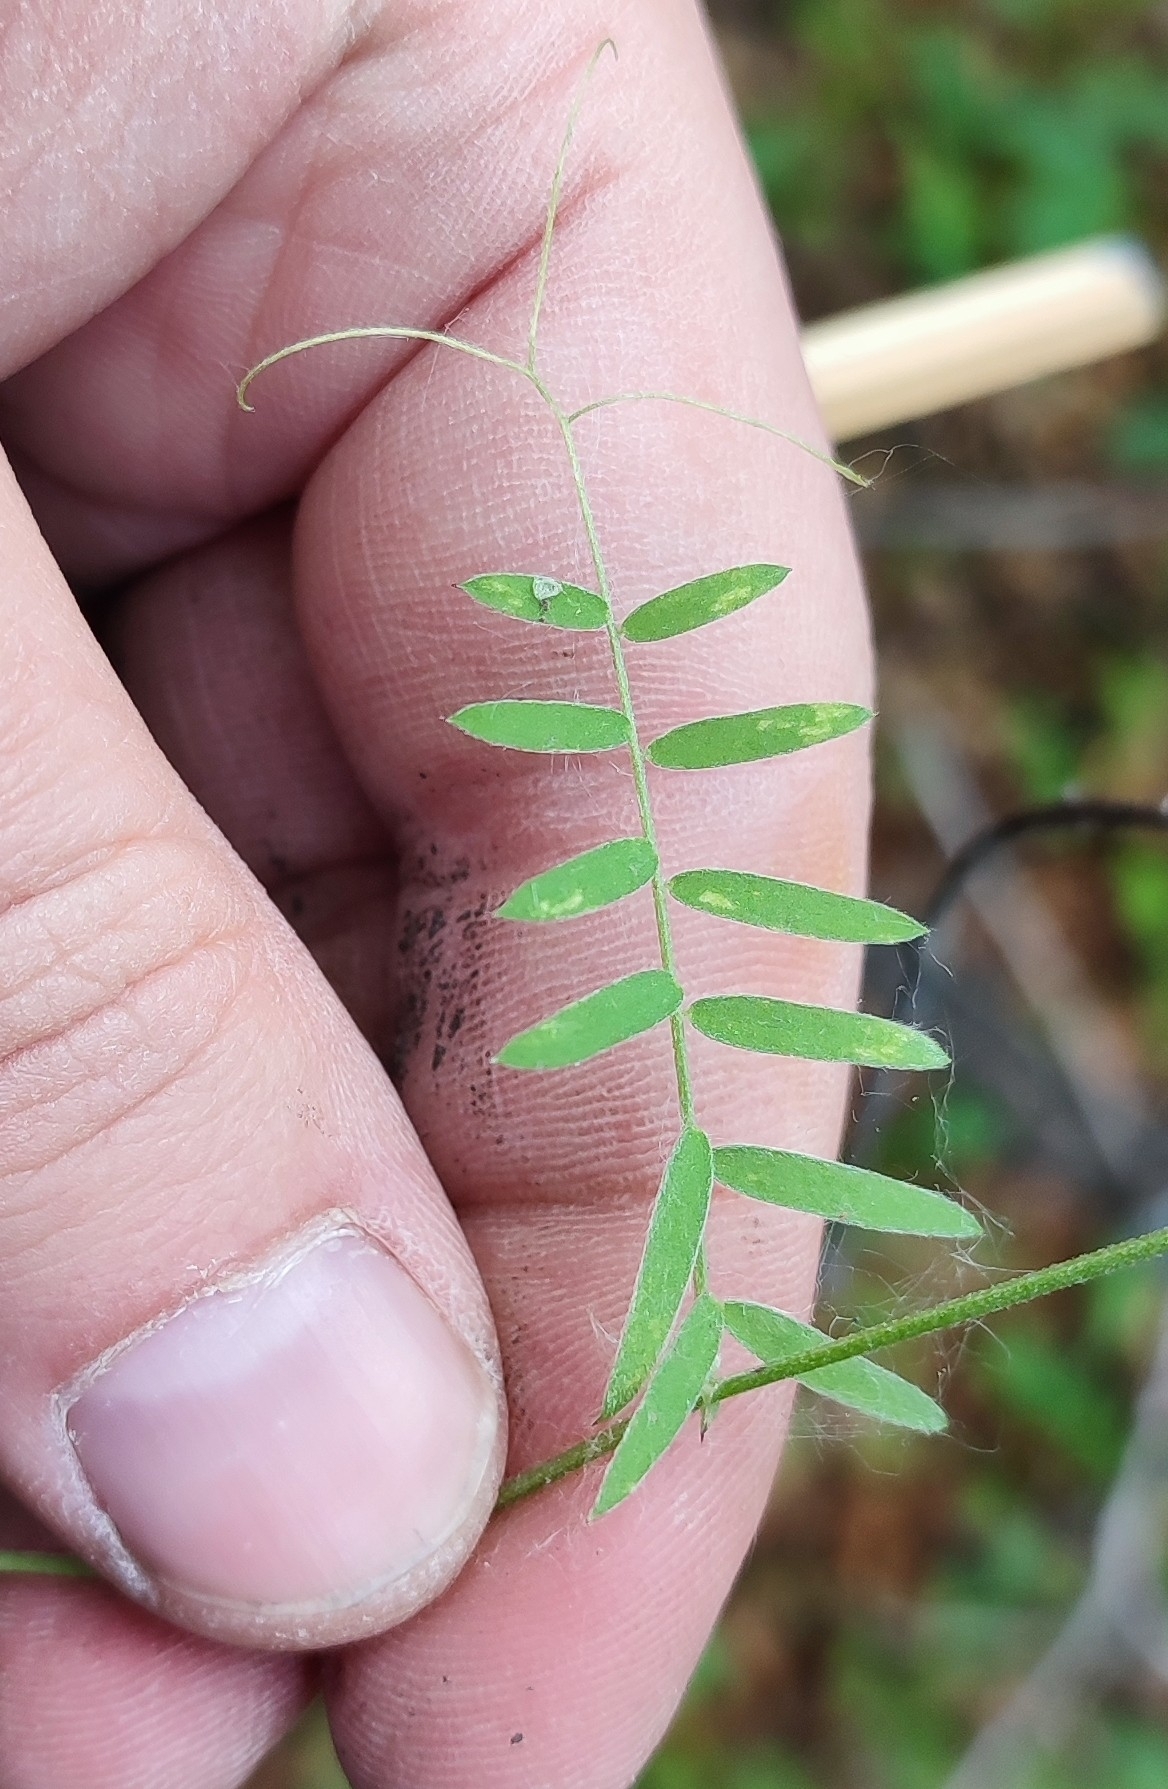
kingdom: Plantae
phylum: Tracheophyta
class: Magnoliopsida
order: Fabales
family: Fabaceae
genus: Vicia
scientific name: Vicia cracca
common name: Bird vetch
